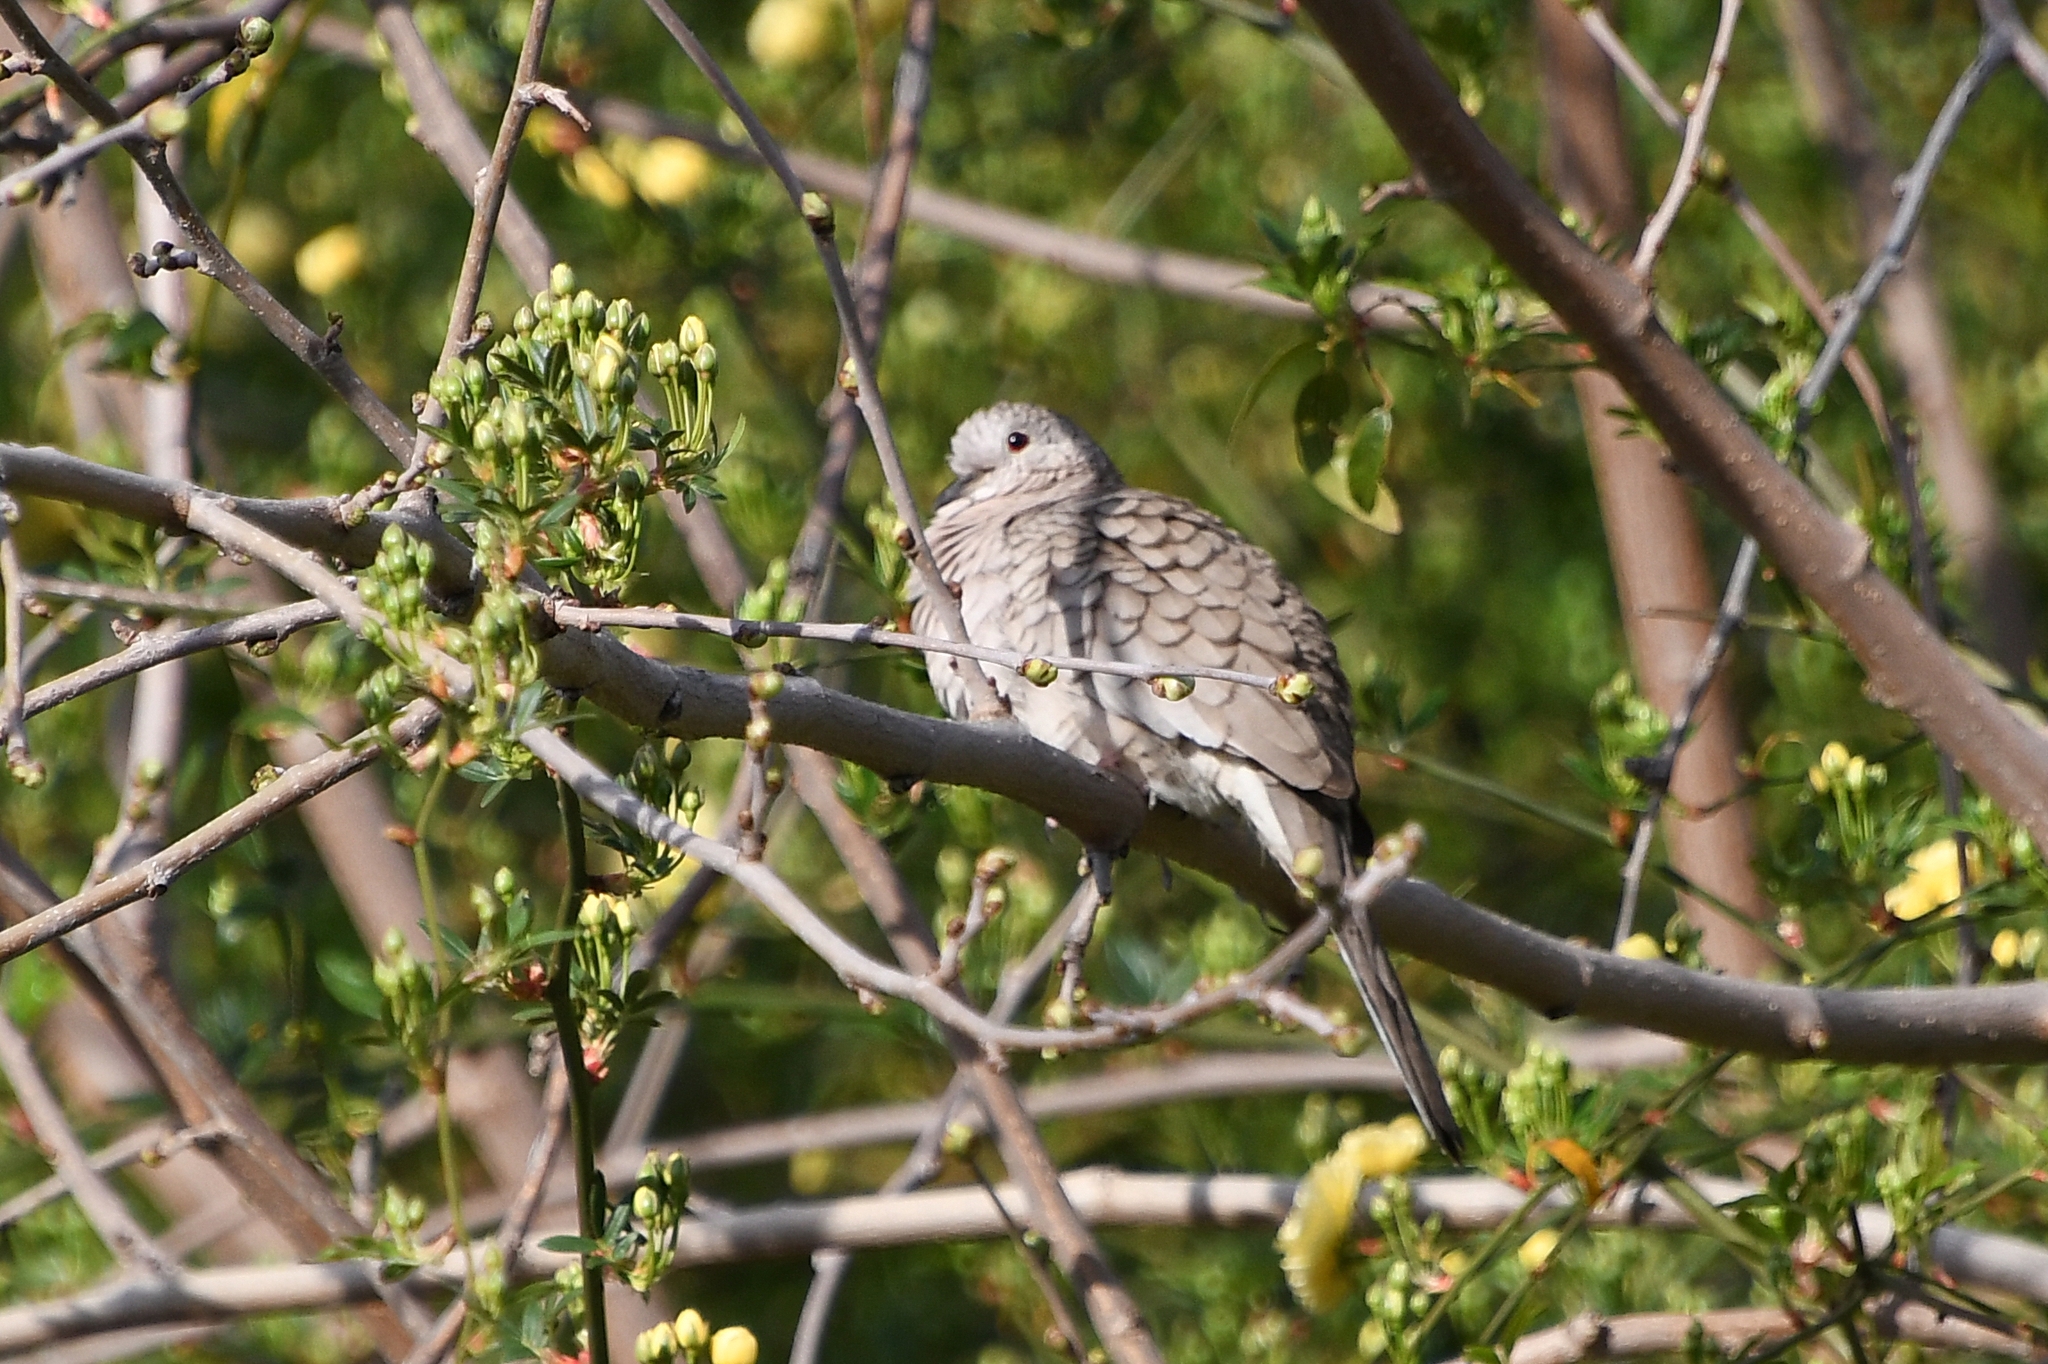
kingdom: Animalia
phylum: Chordata
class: Aves
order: Columbiformes
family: Columbidae
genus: Columbina
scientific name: Columbina inca
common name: Inca dove
